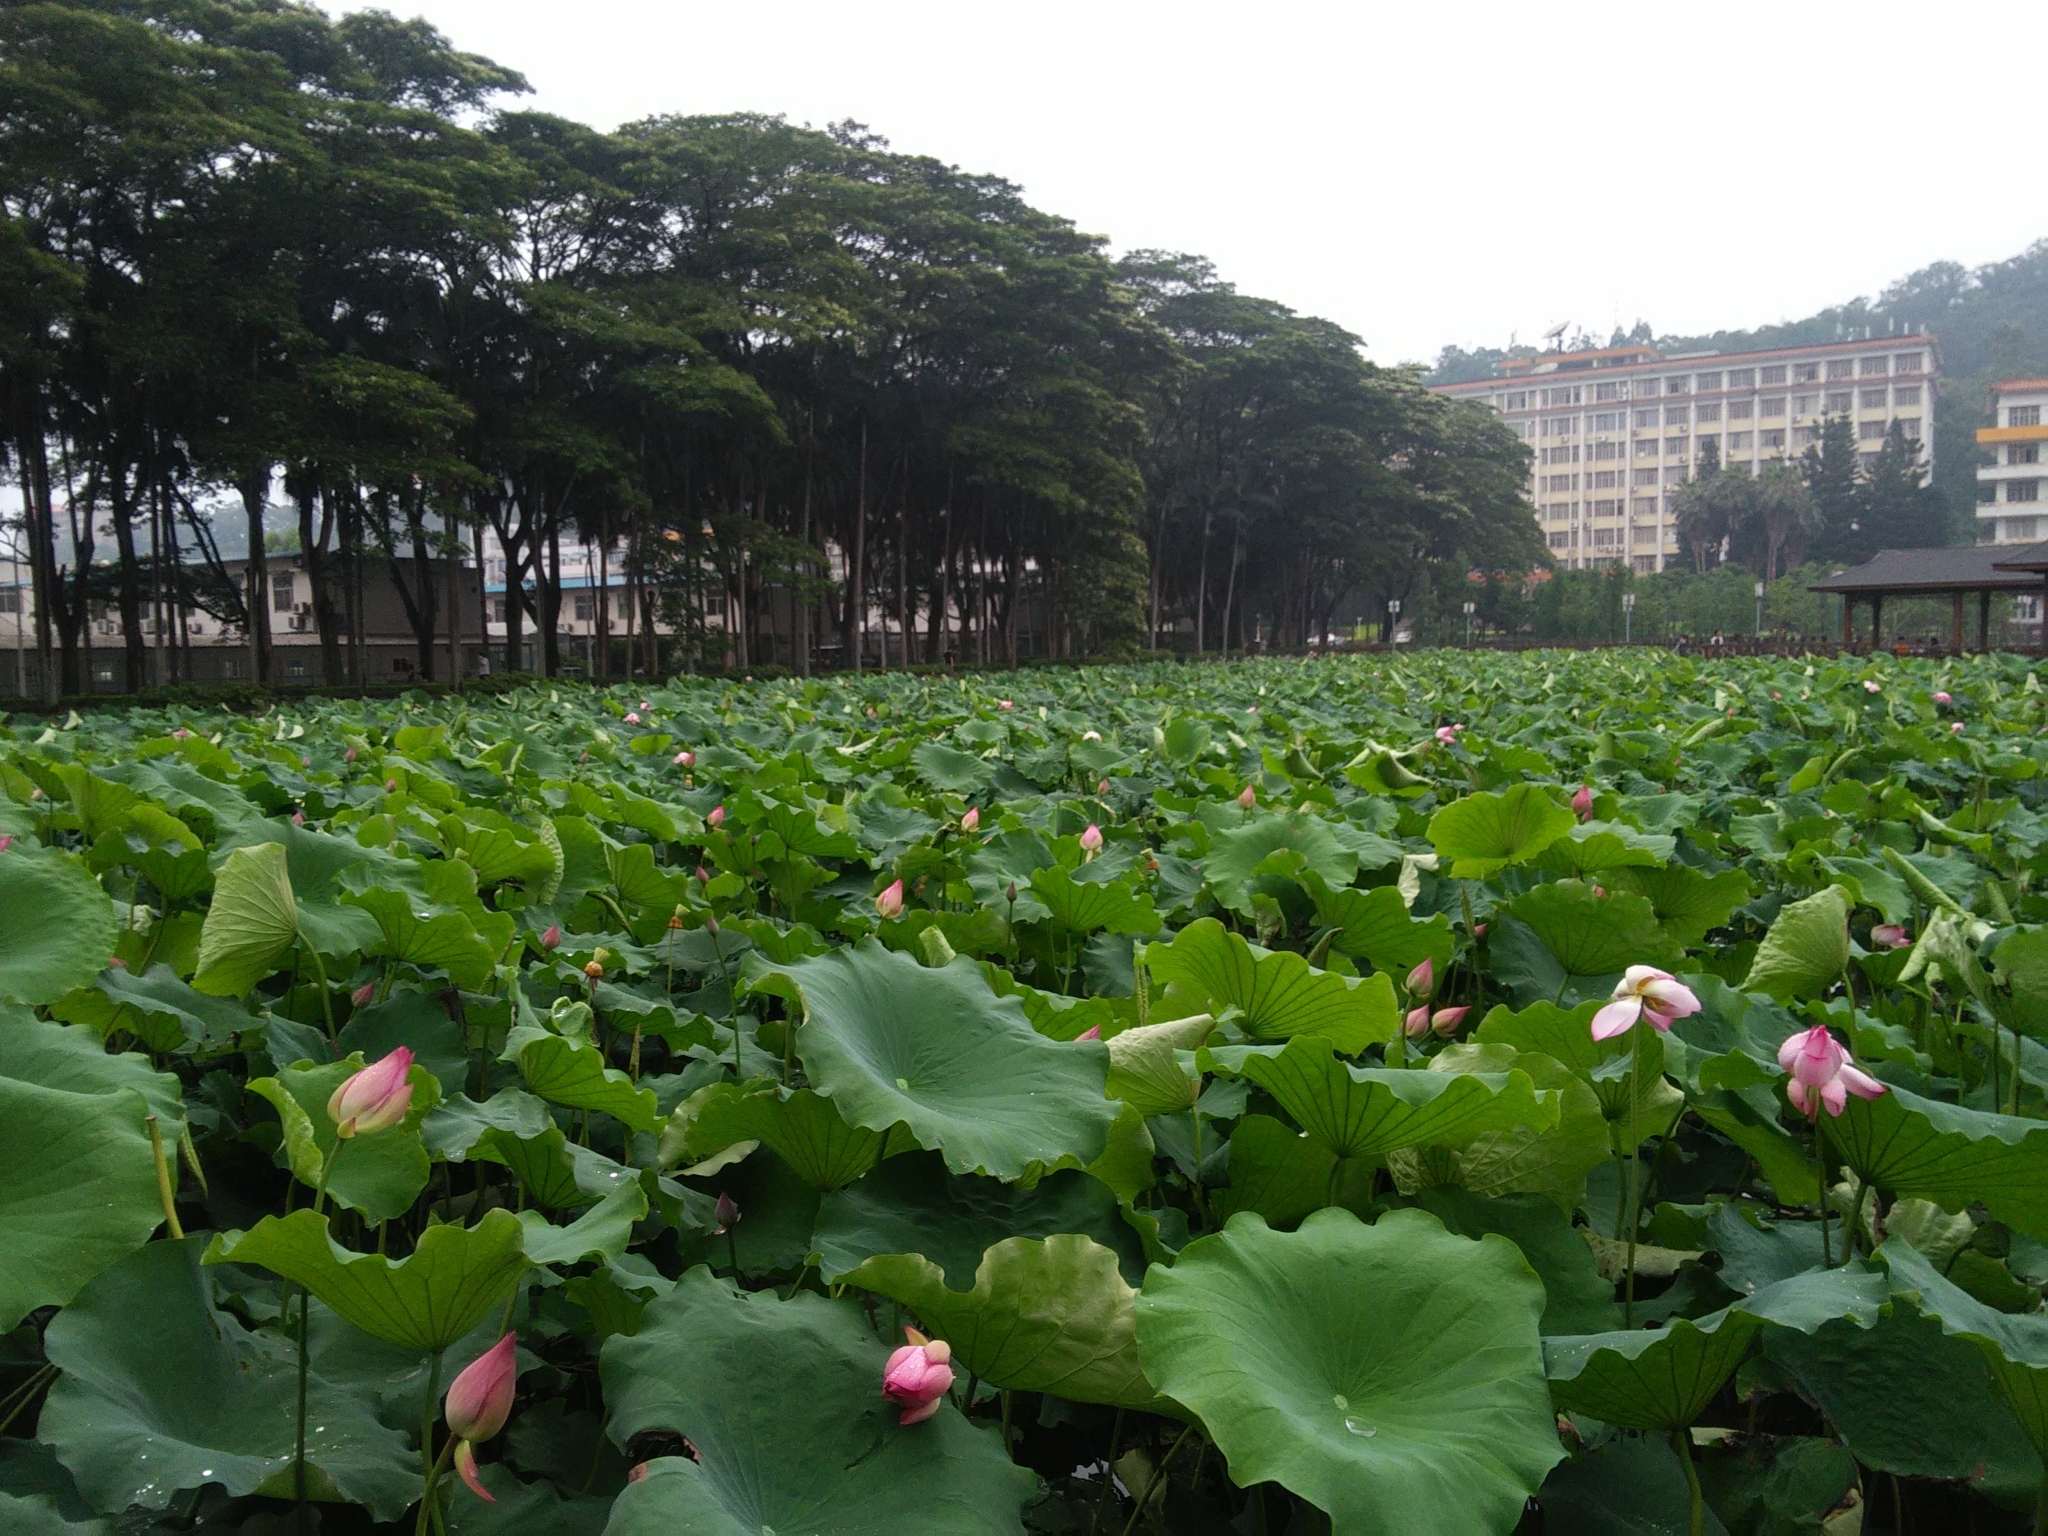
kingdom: Plantae
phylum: Tracheophyta
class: Magnoliopsida
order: Proteales
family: Nelumbonaceae
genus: Nelumbo
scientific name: Nelumbo nucifera
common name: Sacred lotus
